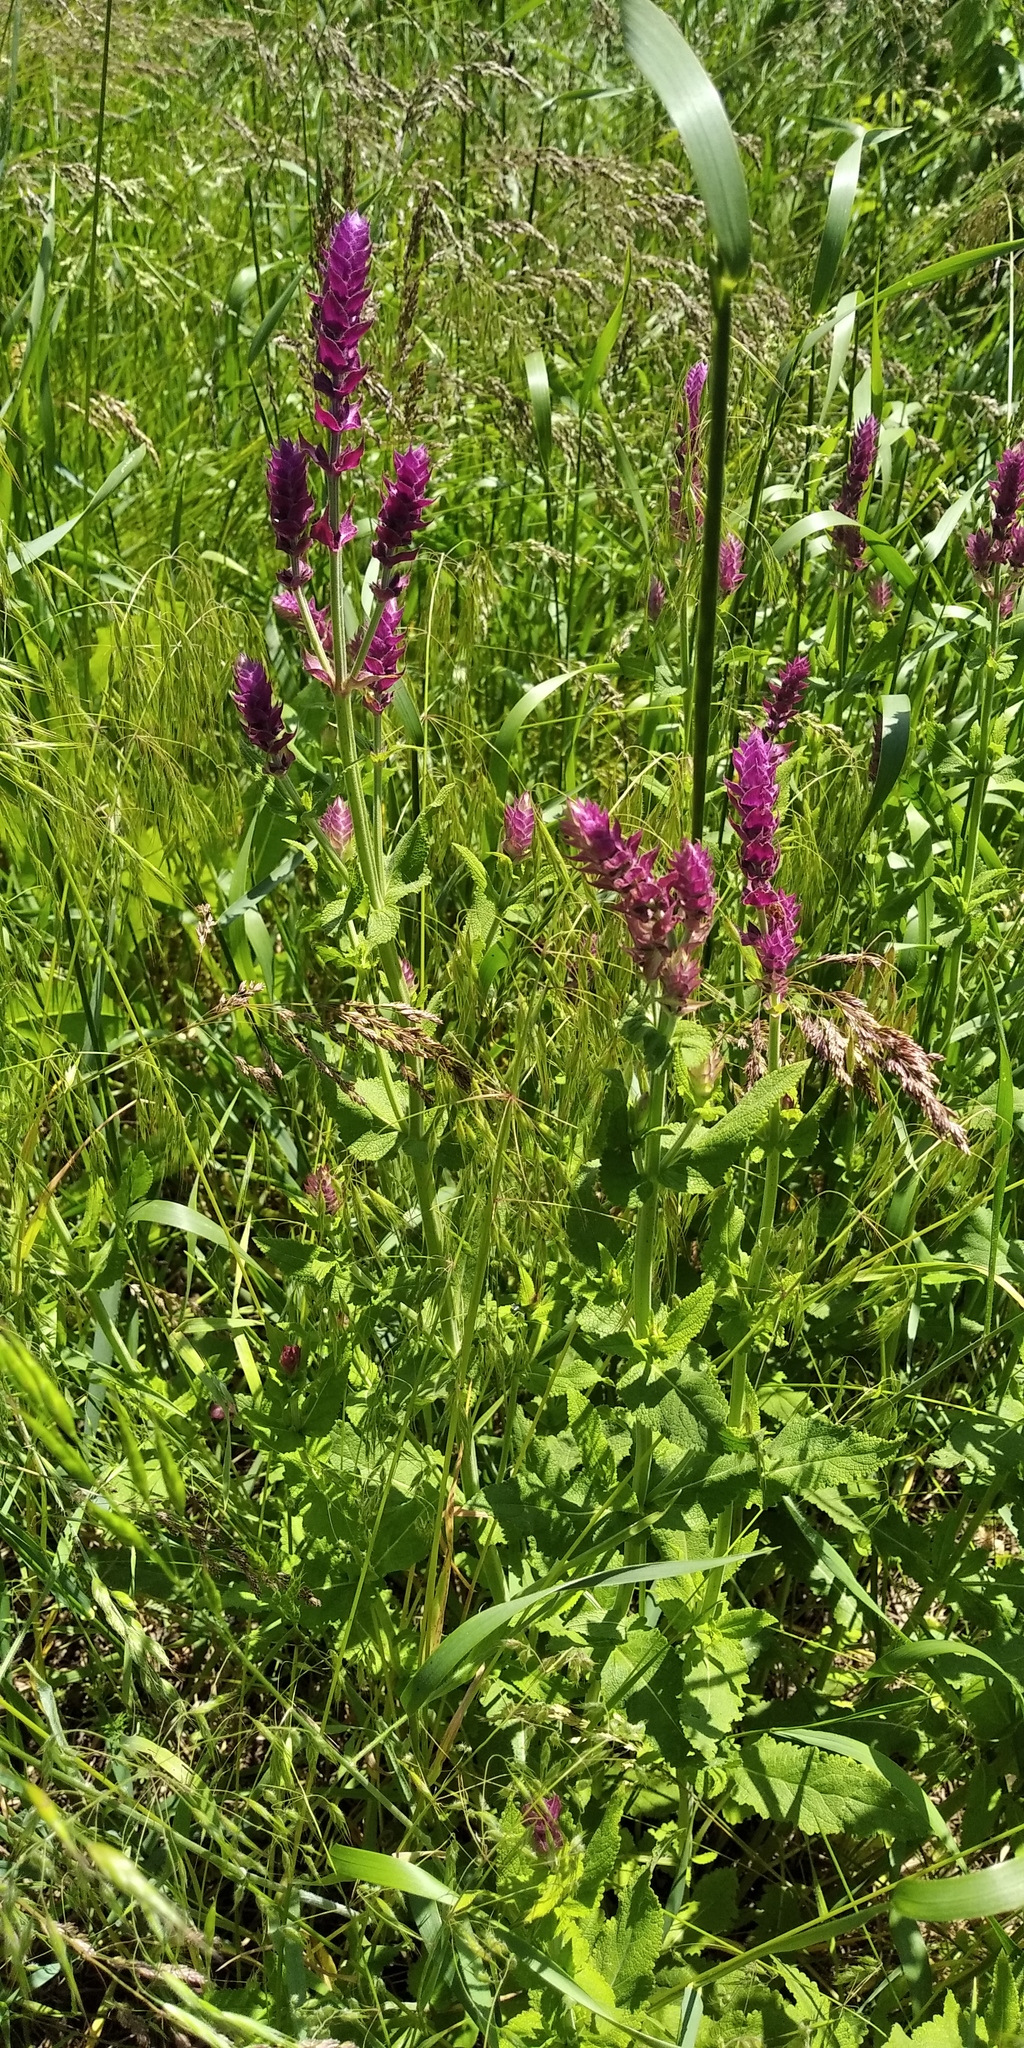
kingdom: Plantae
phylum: Tracheophyta
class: Magnoliopsida
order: Lamiales
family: Lamiaceae
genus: Salvia
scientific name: Salvia nemorosa
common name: Balkan clary
